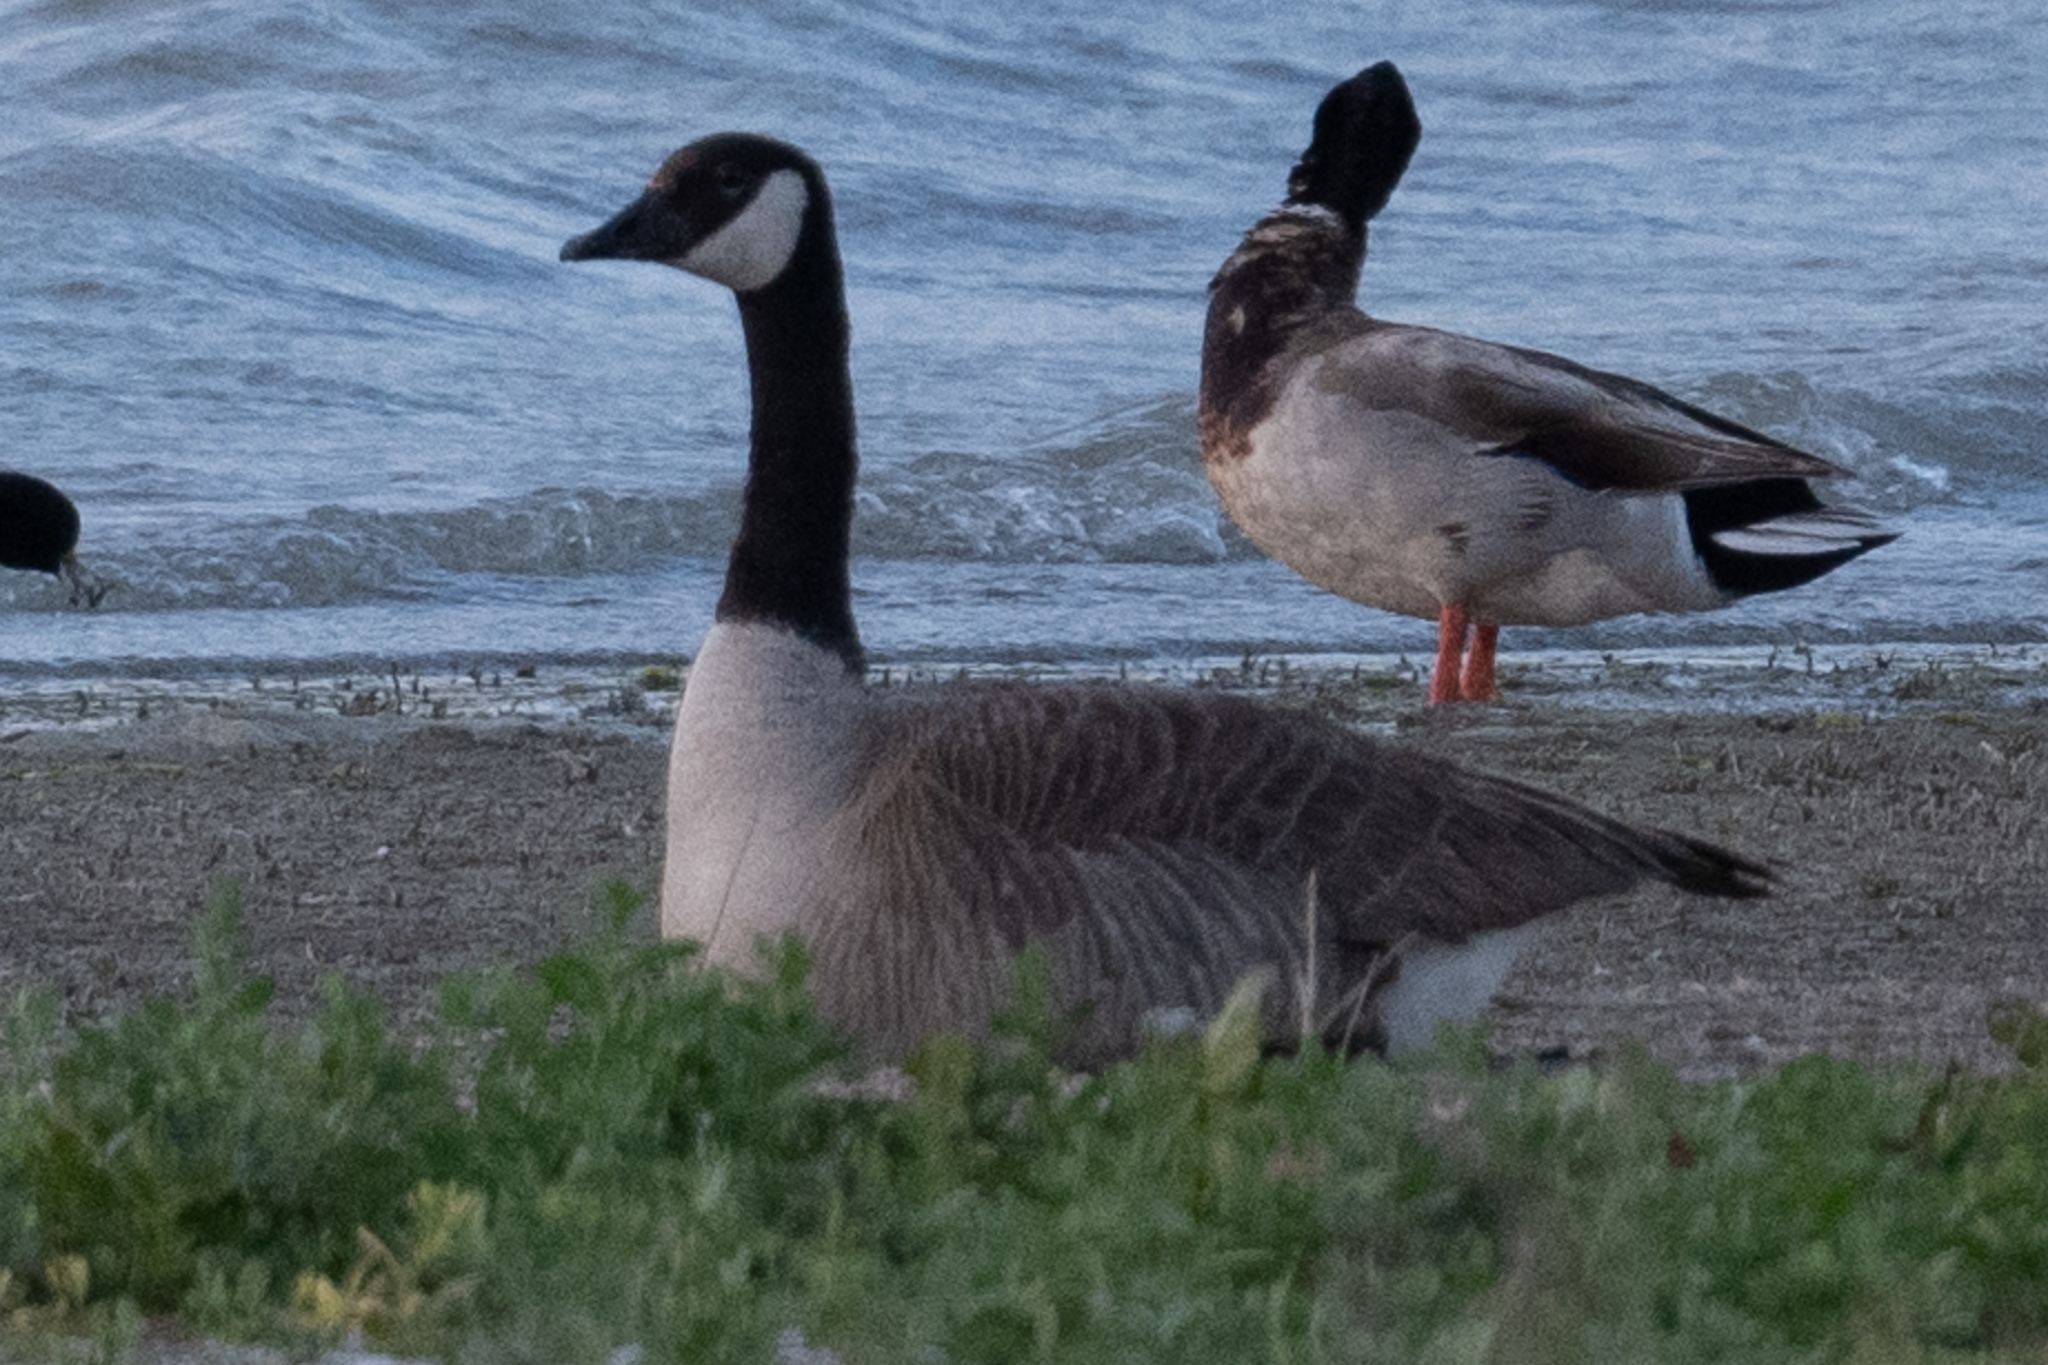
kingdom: Animalia
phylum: Chordata
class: Aves
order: Anseriformes
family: Anatidae
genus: Branta
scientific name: Branta canadensis
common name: Canada goose
